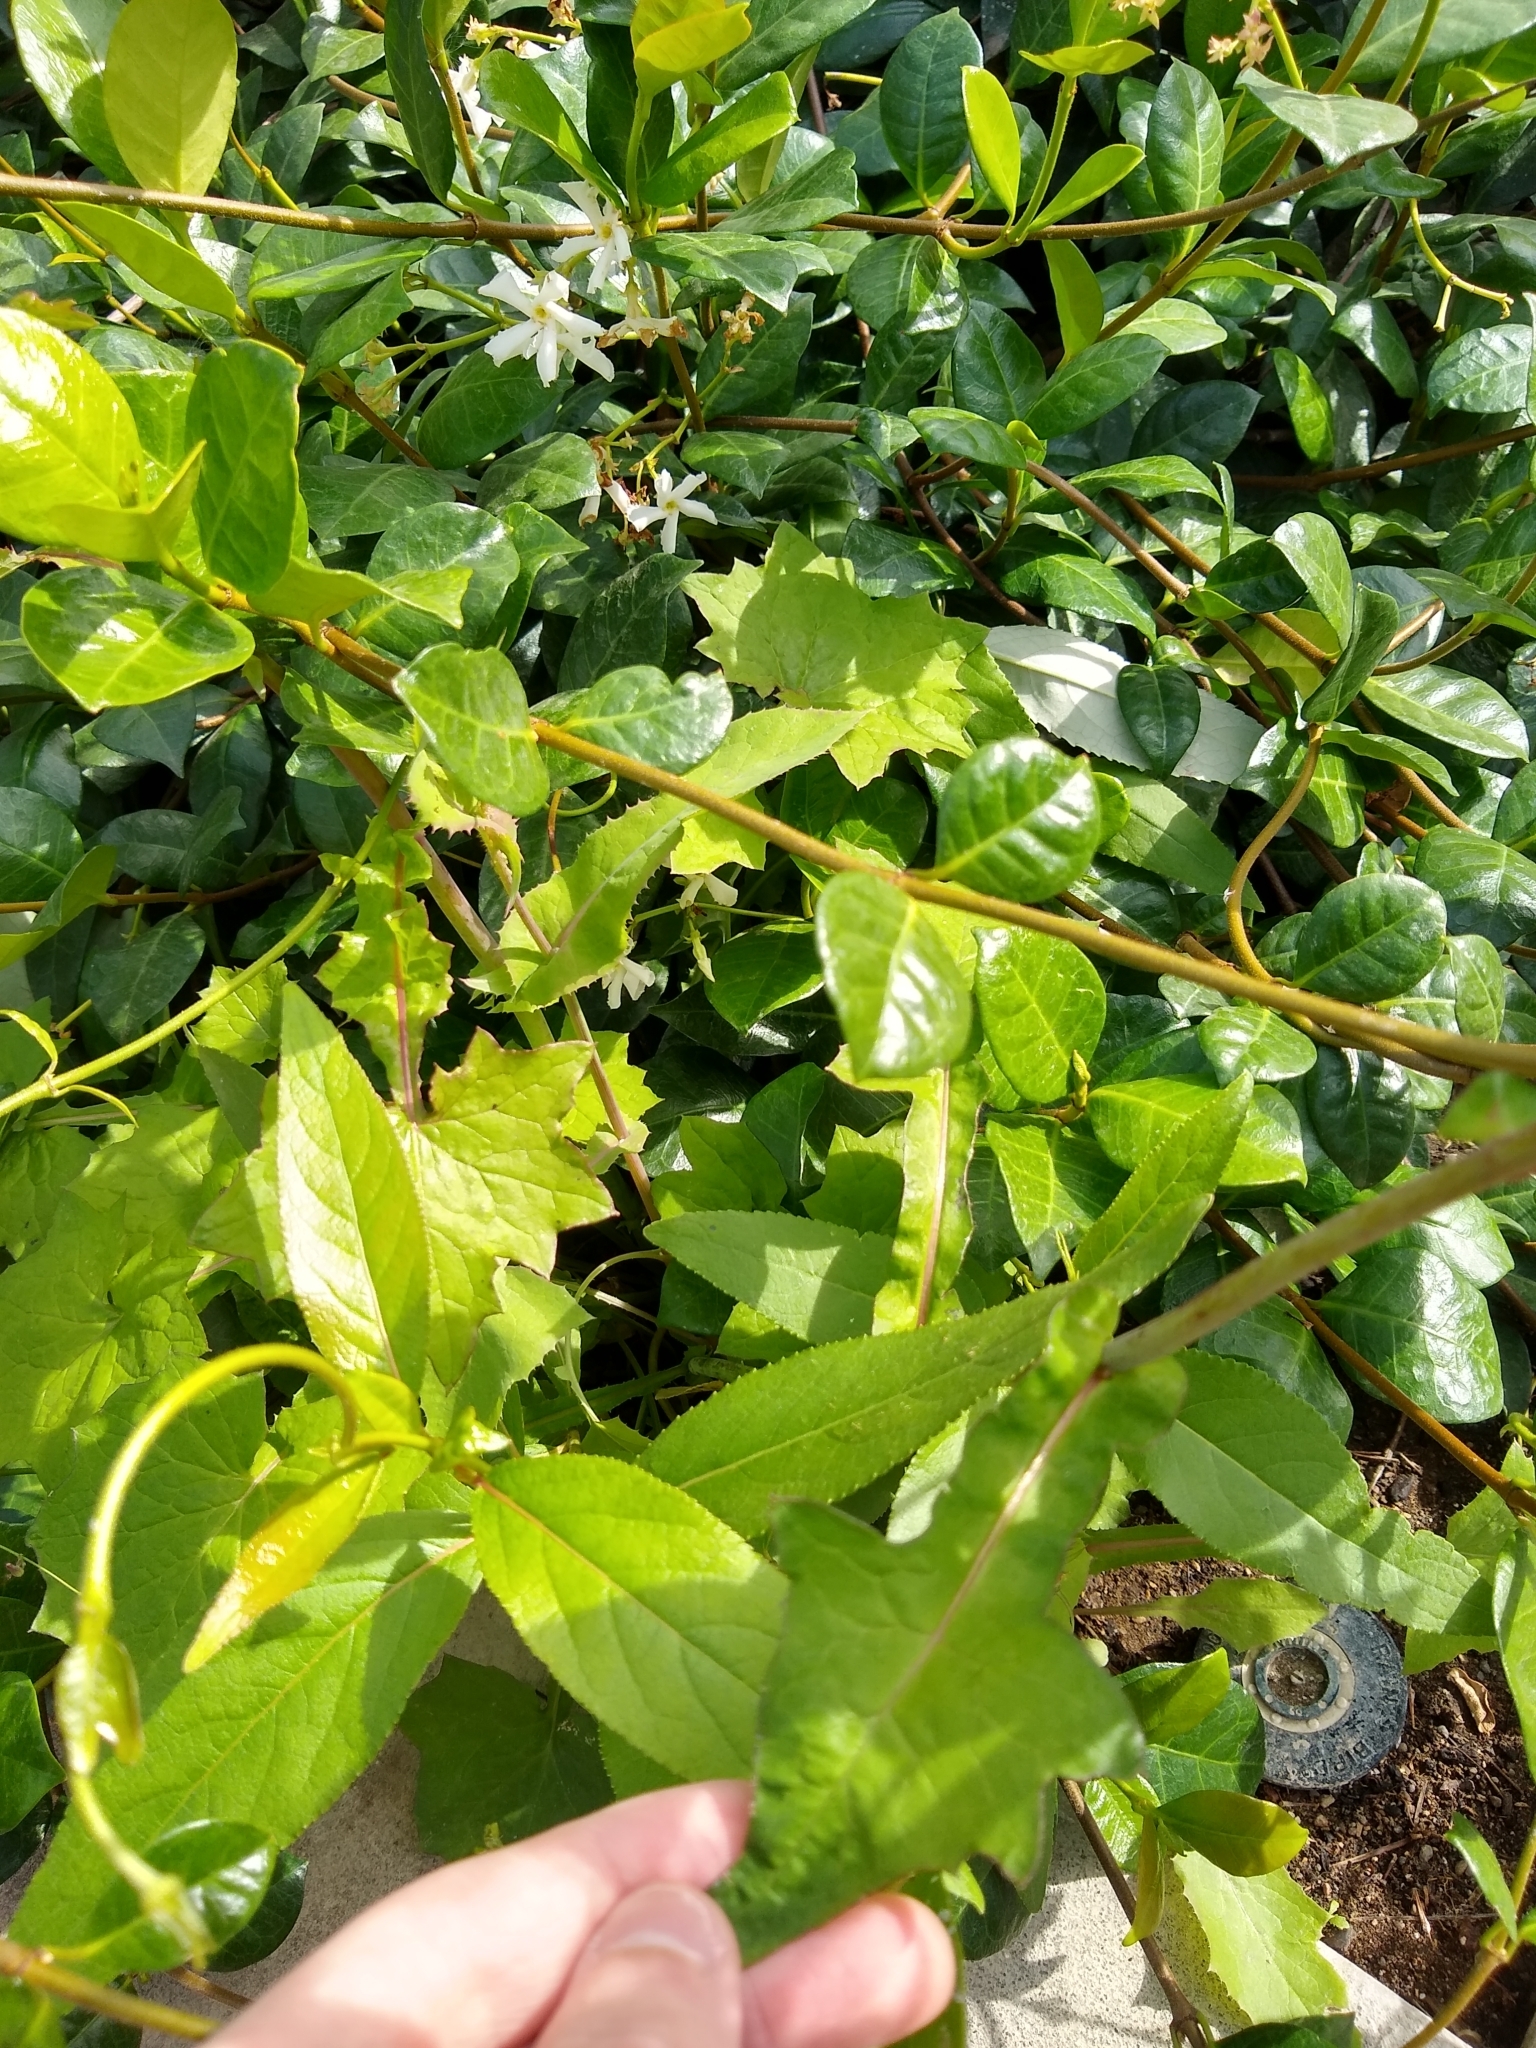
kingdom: Plantae
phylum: Tracheophyta
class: Magnoliopsida
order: Asterales
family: Asteraceae
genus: Mycelis
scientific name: Mycelis muralis
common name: Wall lettuce
